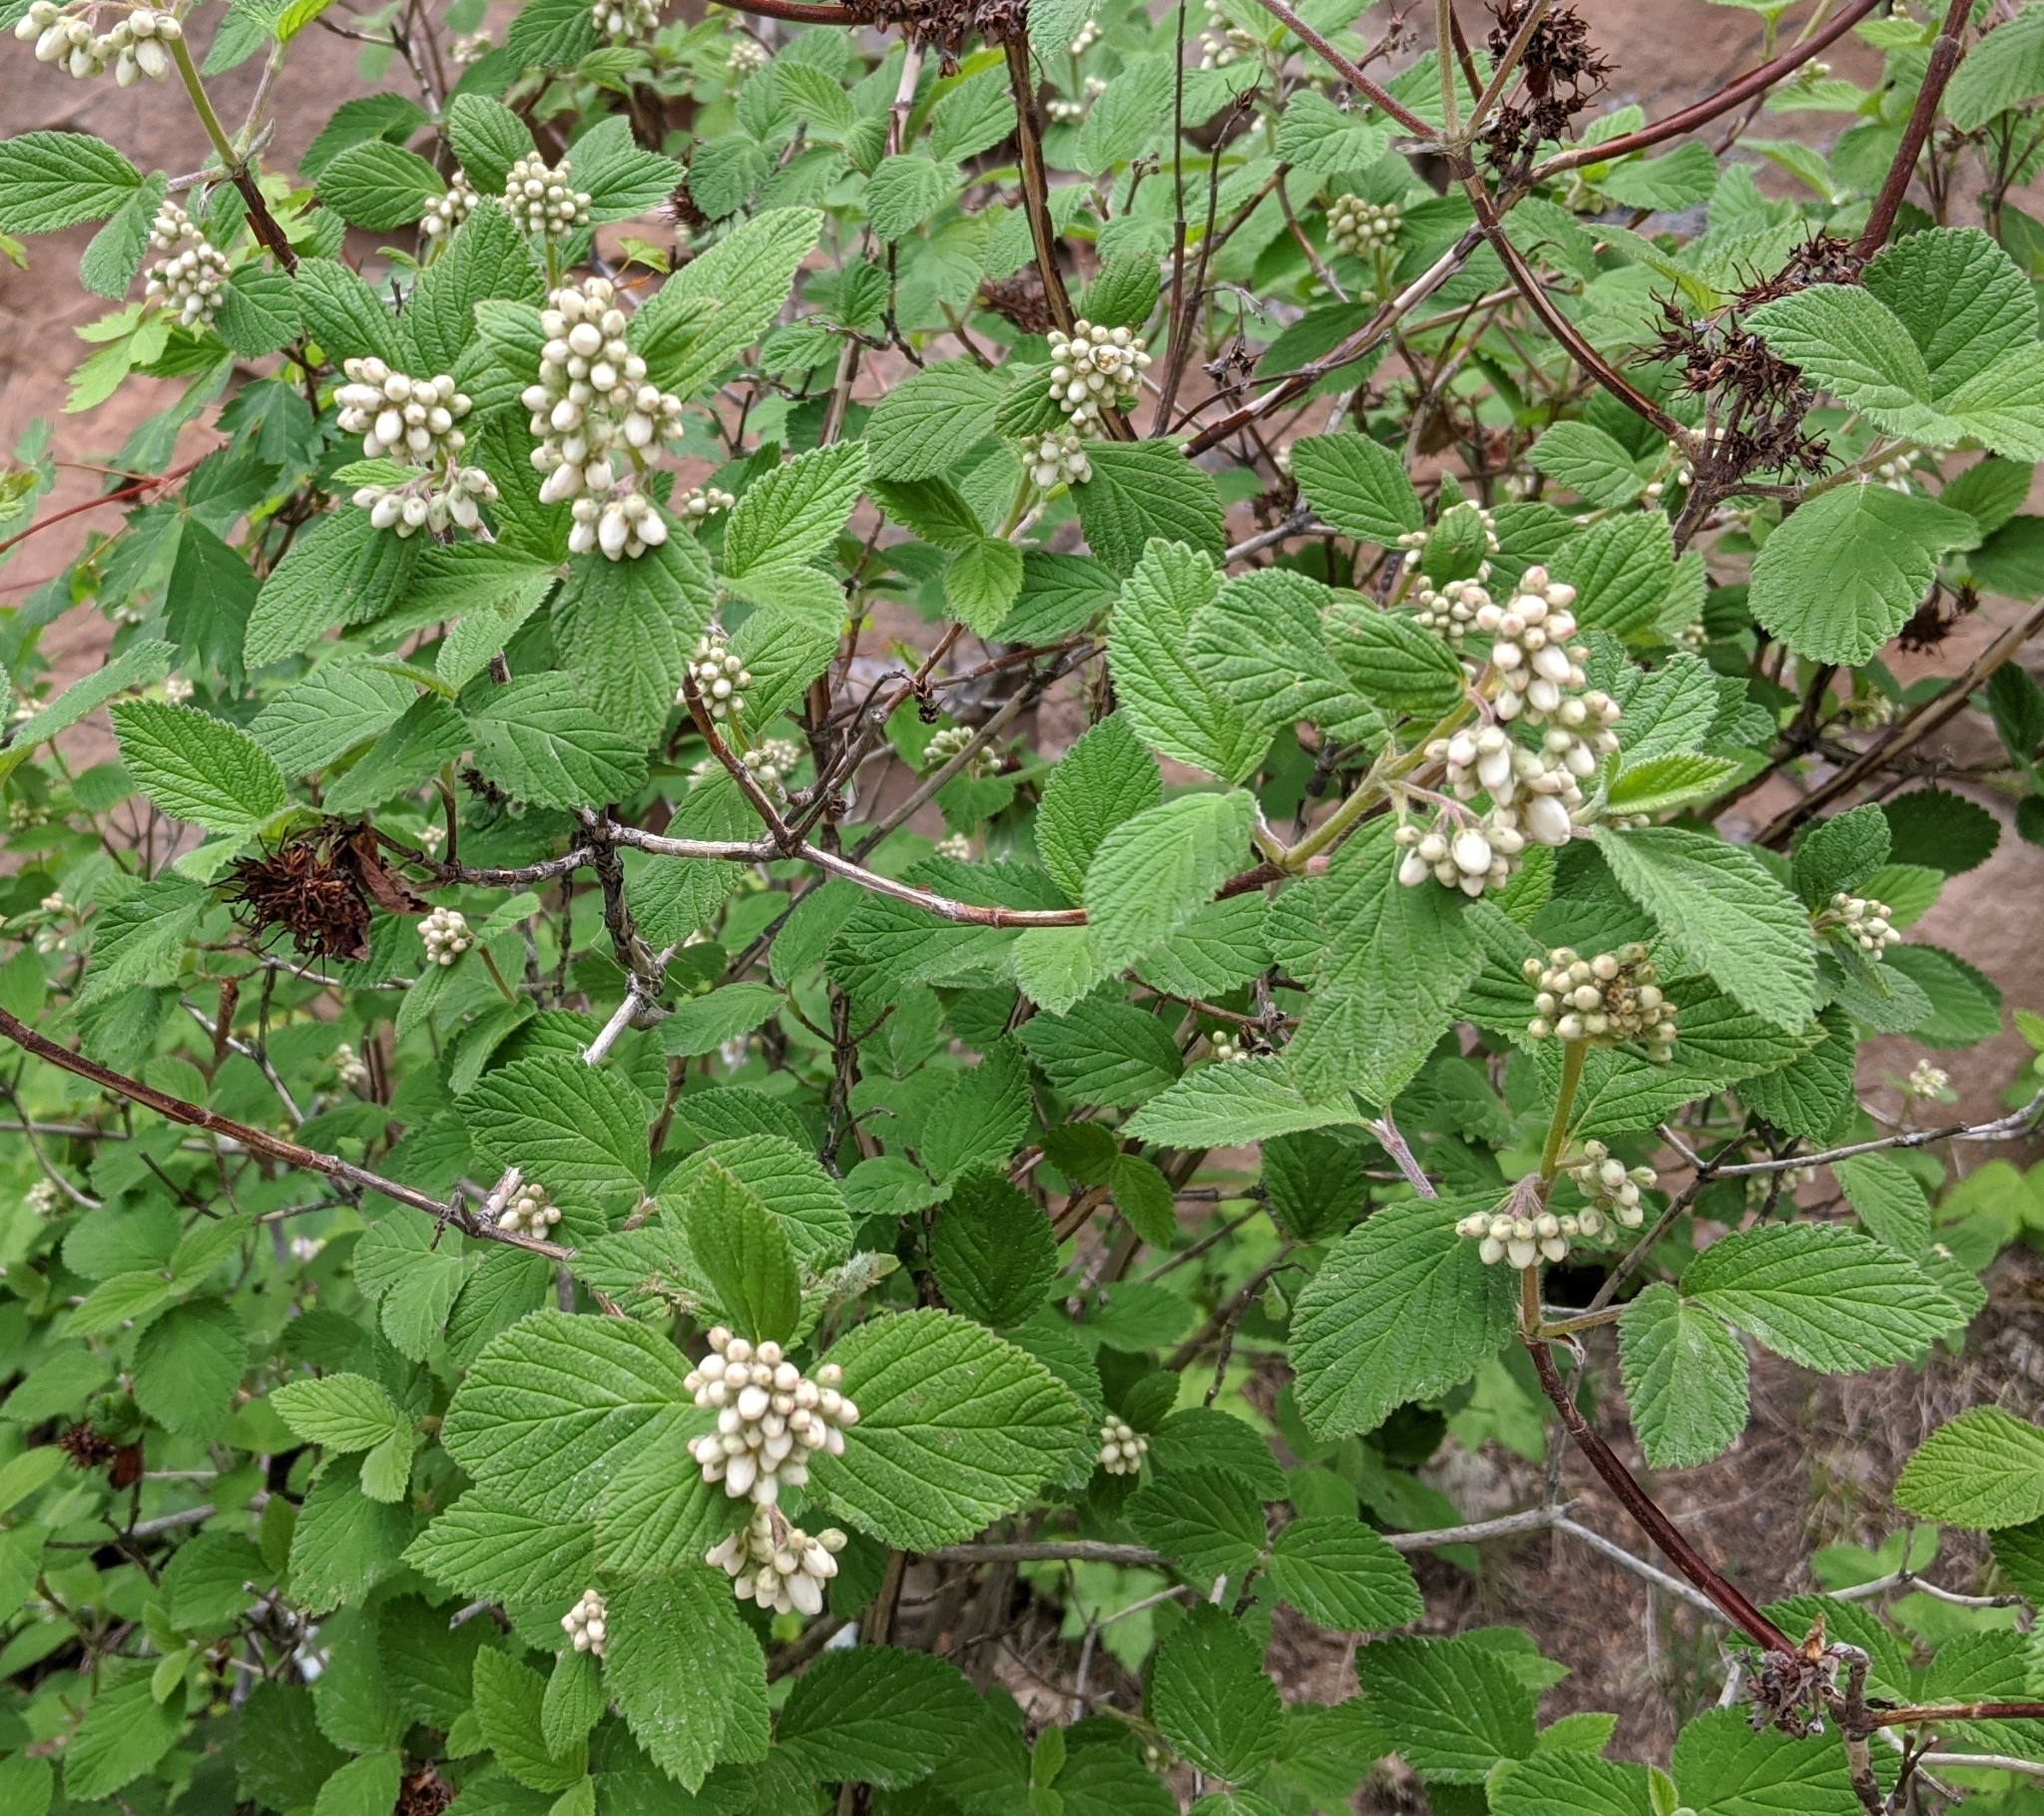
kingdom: Plantae
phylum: Tracheophyta
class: Magnoliopsida
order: Cornales
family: Hydrangeaceae
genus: Jamesia
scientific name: Jamesia americana
